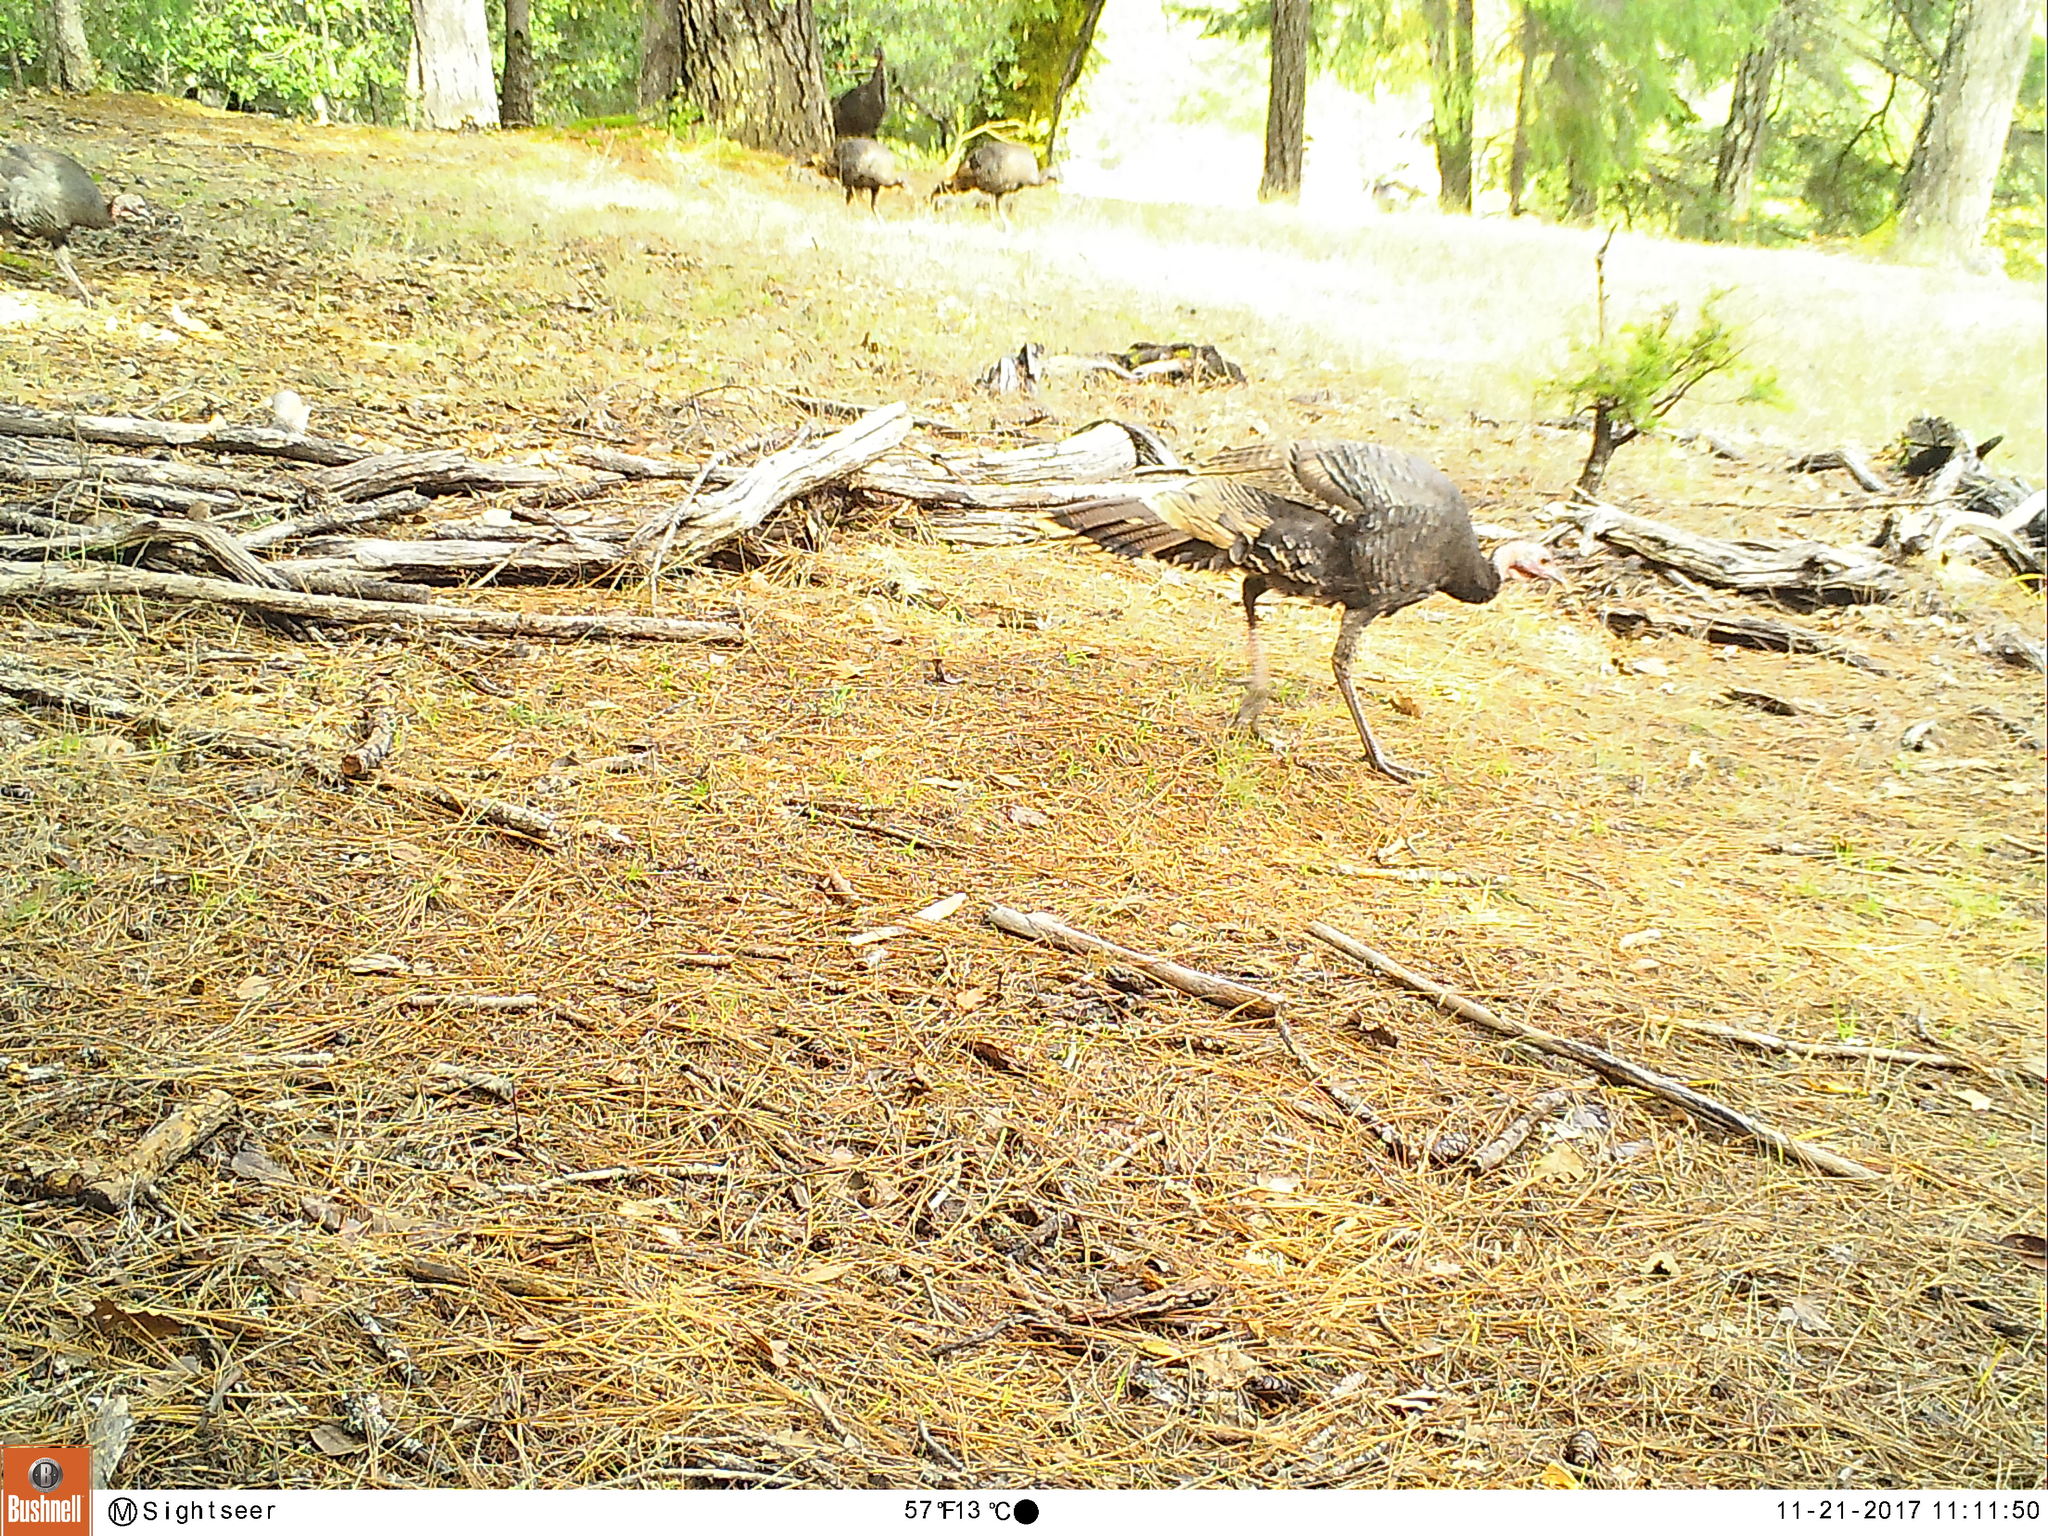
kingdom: Animalia
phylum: Chordata
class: Aves
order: Galliformes
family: Phasianidae
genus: Meleagris
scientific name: Meleagris gallopavo
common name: Wild turkey
